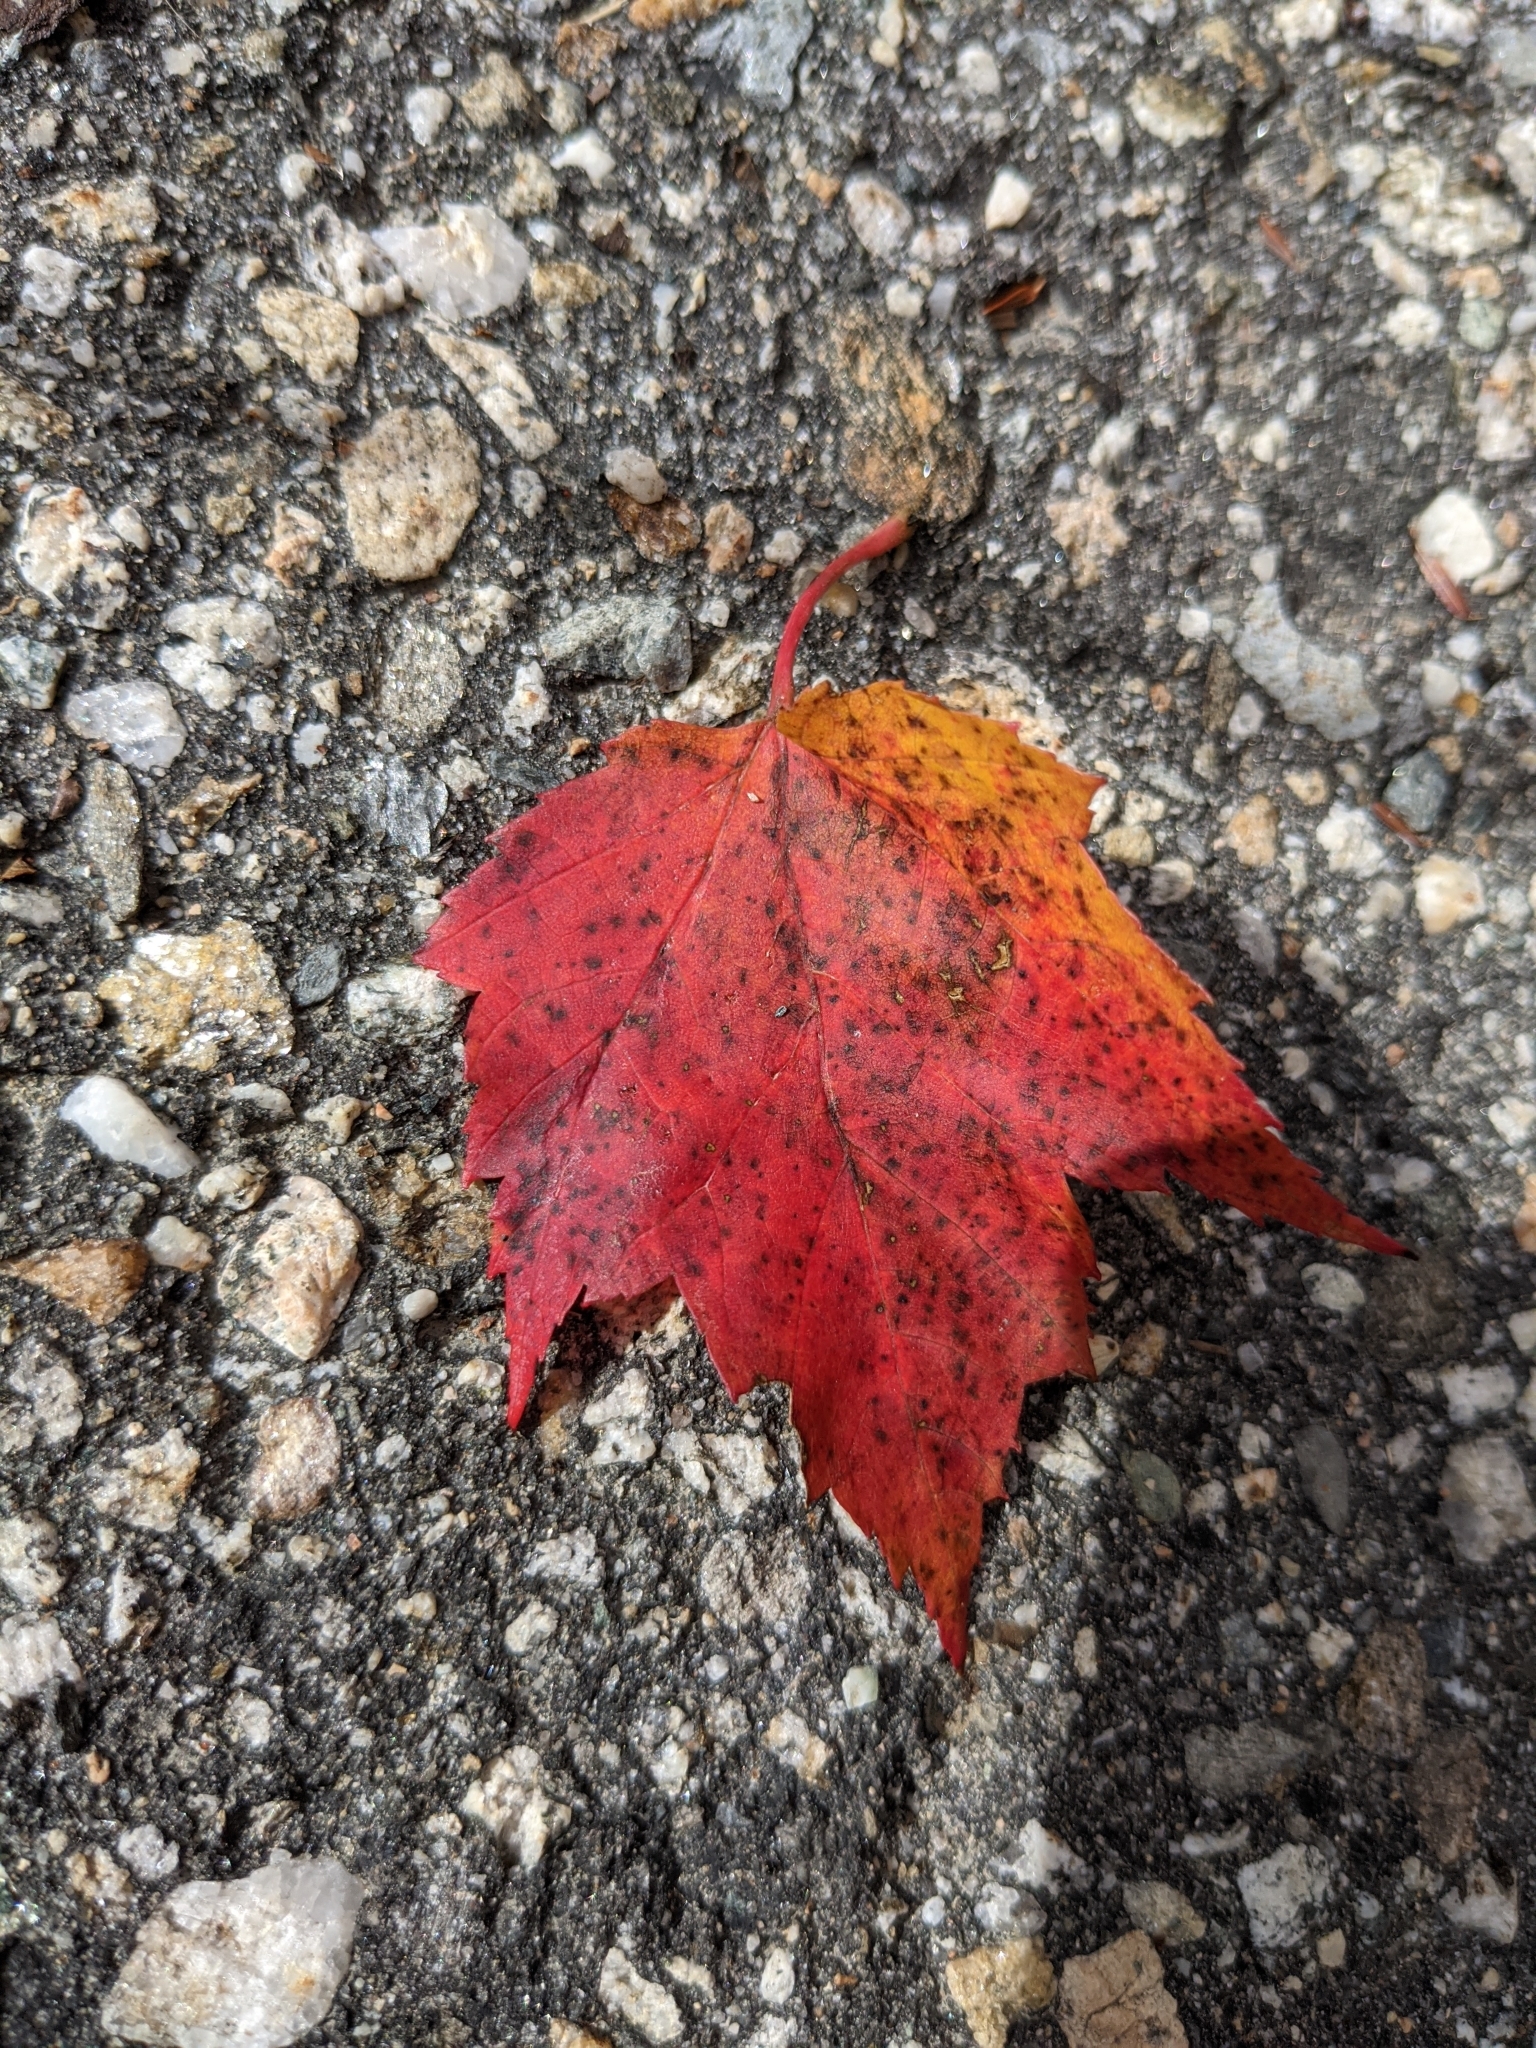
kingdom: Plantae
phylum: Tracheophyta
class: Magnoliopsida
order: Sapindales
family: Sapindaceae
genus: Acer
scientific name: Acer rubrum
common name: Red maple
